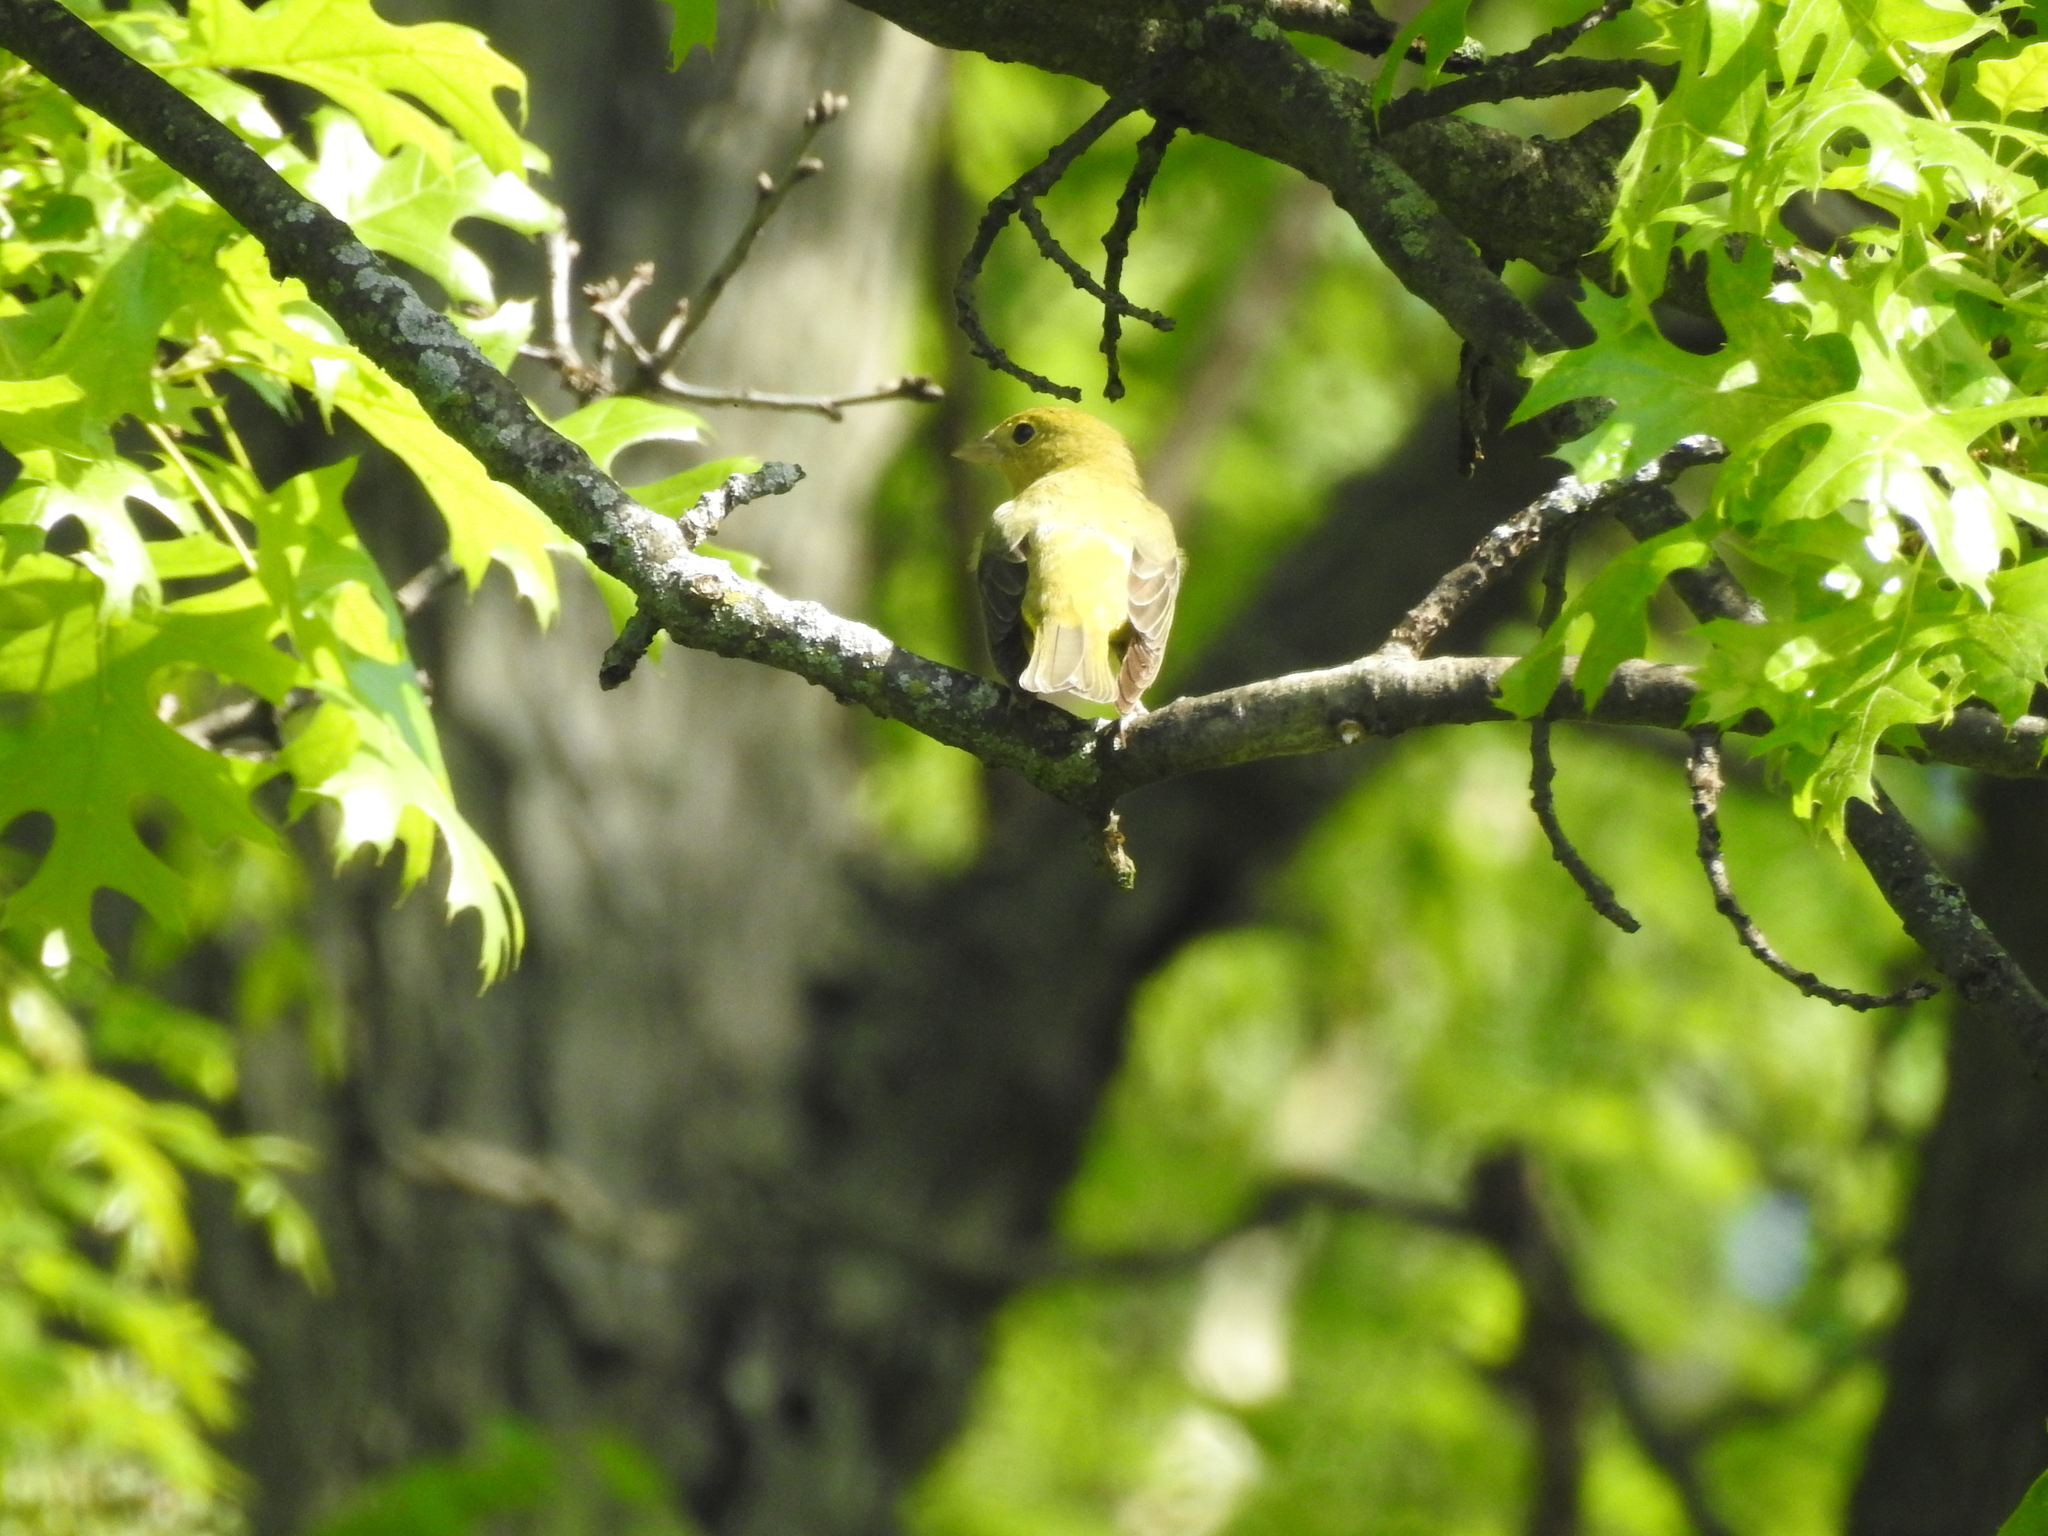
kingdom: Animalia
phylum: Chordata
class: Aves
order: Passeriformes
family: Cardinalidae
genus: Piranga
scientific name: Piranga olivacea
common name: Scarlet tanager
